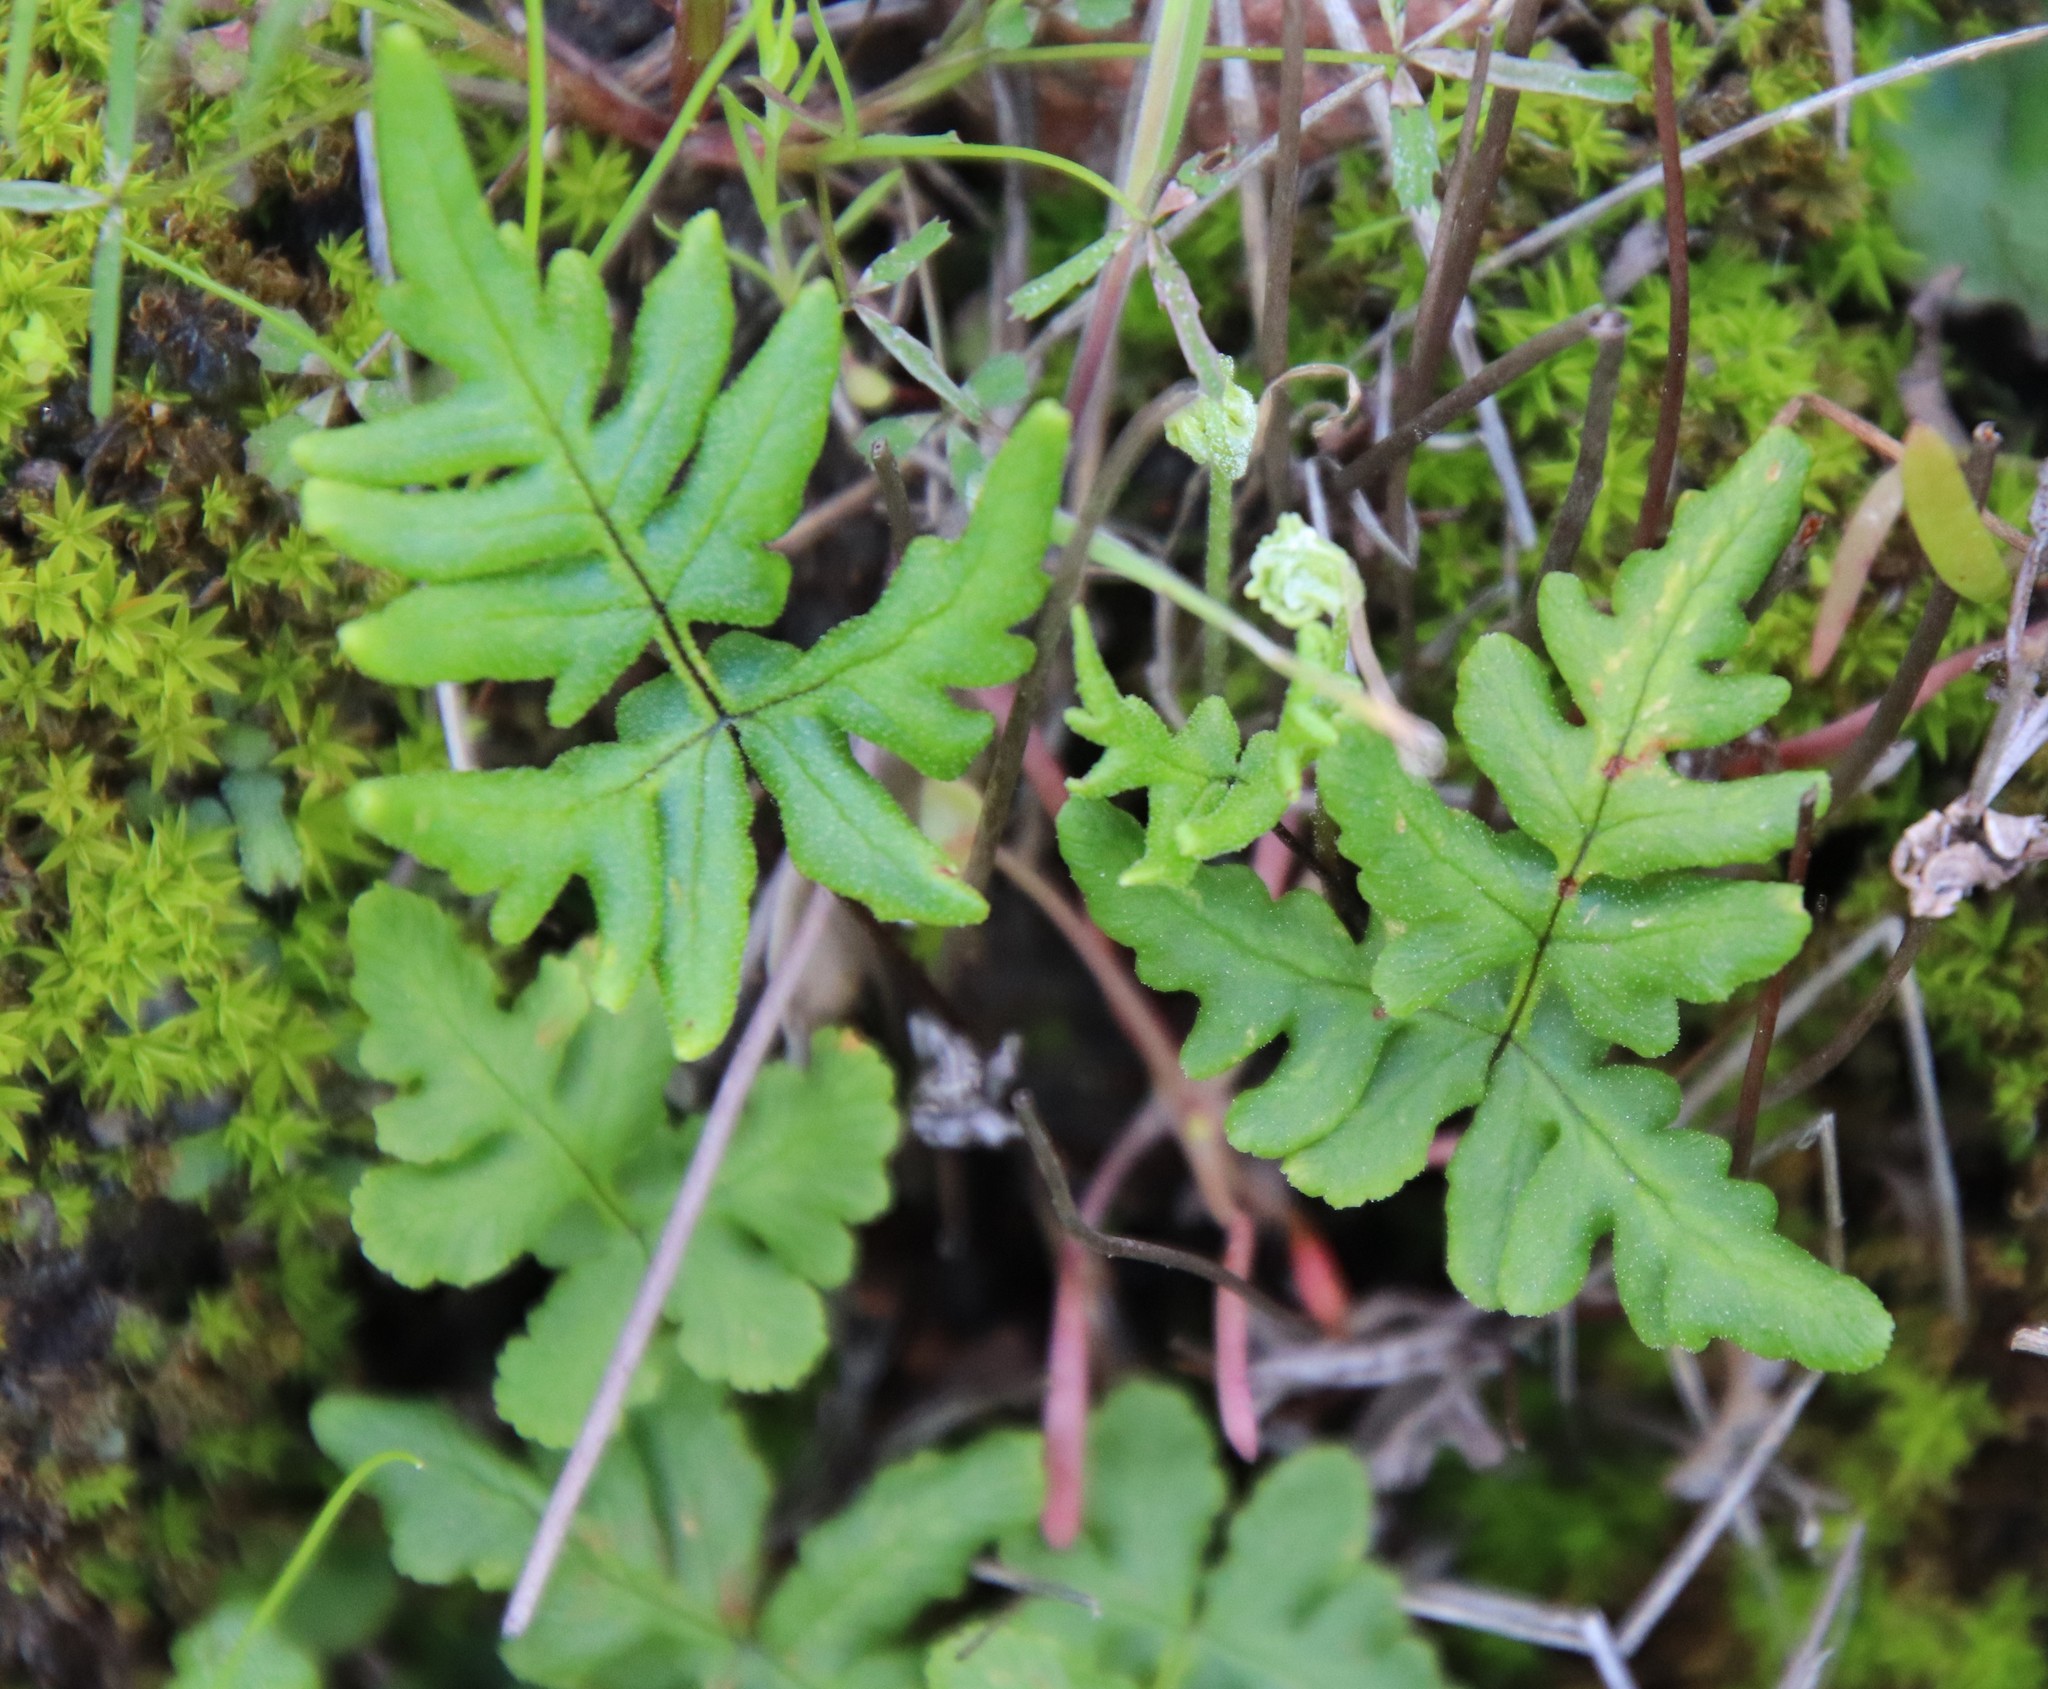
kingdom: Plantae
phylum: Tracheophyta
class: Polypodiopsida
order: Polypodiales
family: Pteridaceae
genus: Pentagramma
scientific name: Pentagramma glanduloviscida
